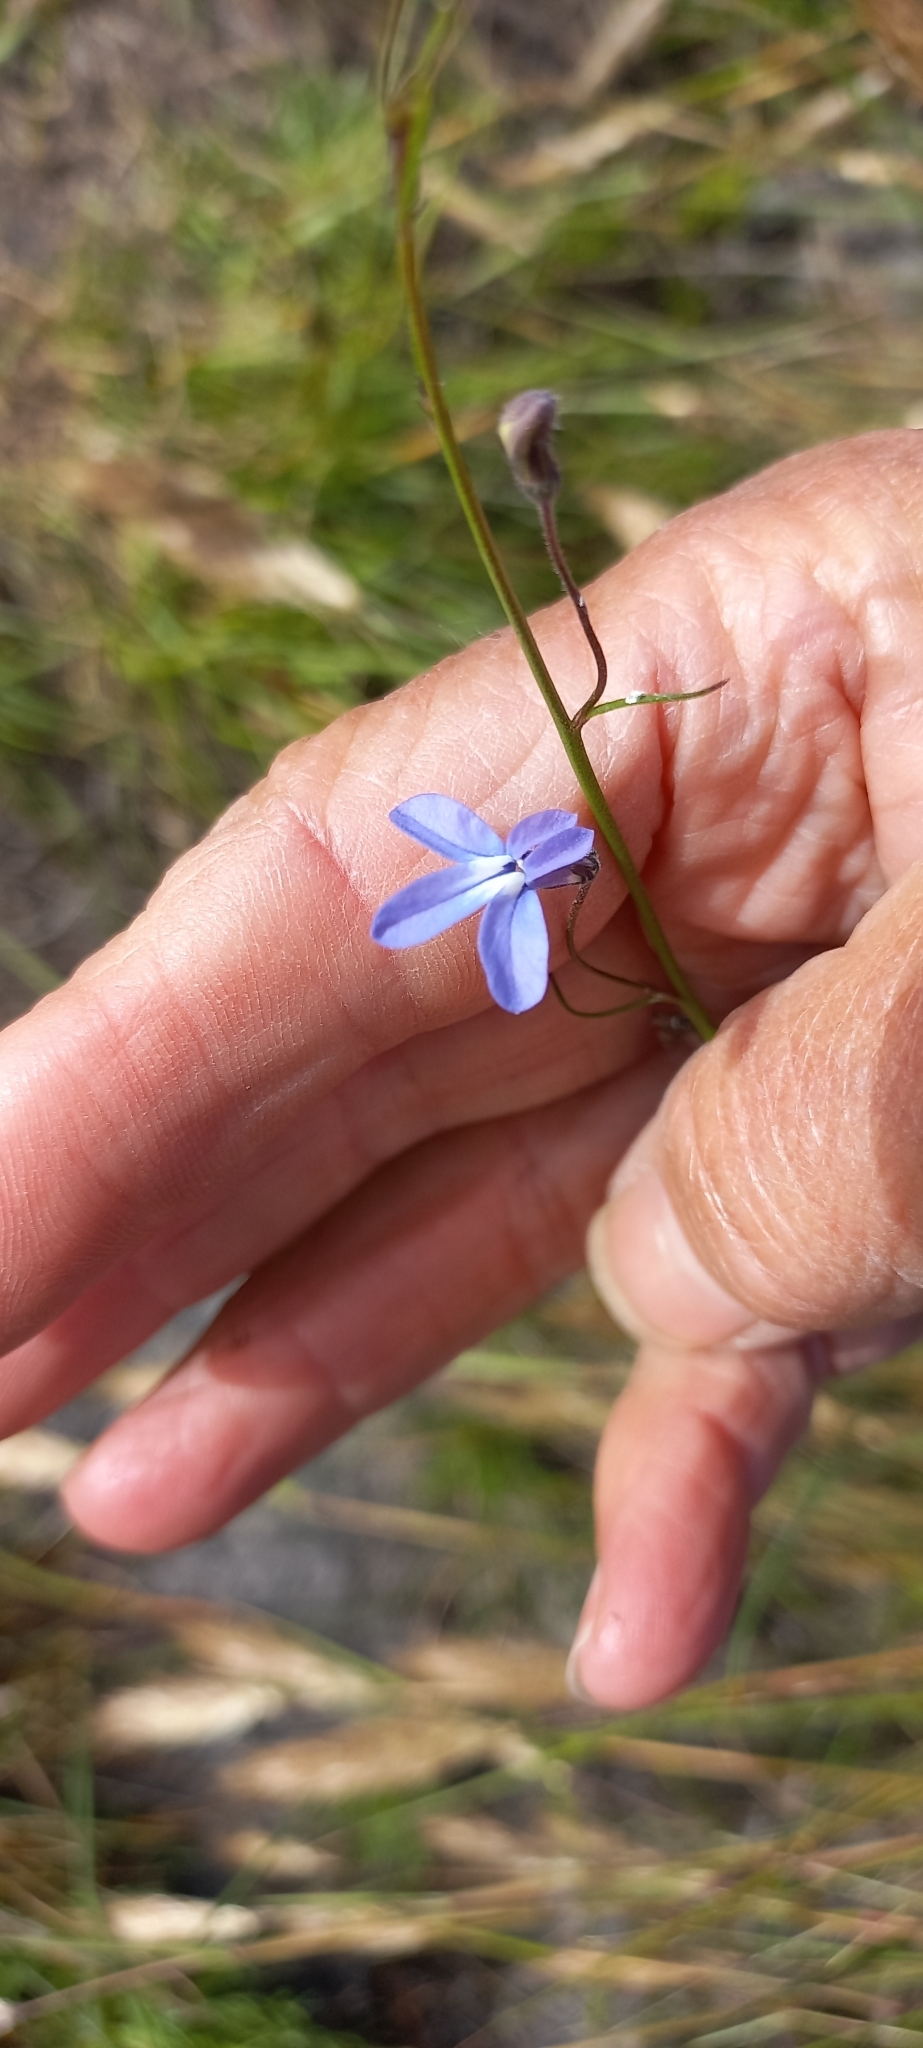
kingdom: Plantae
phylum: Tracheophyta
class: Magnoliopsida
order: Asterales
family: Campanulaceae
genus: Lobelia
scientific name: Lobelia setacea
